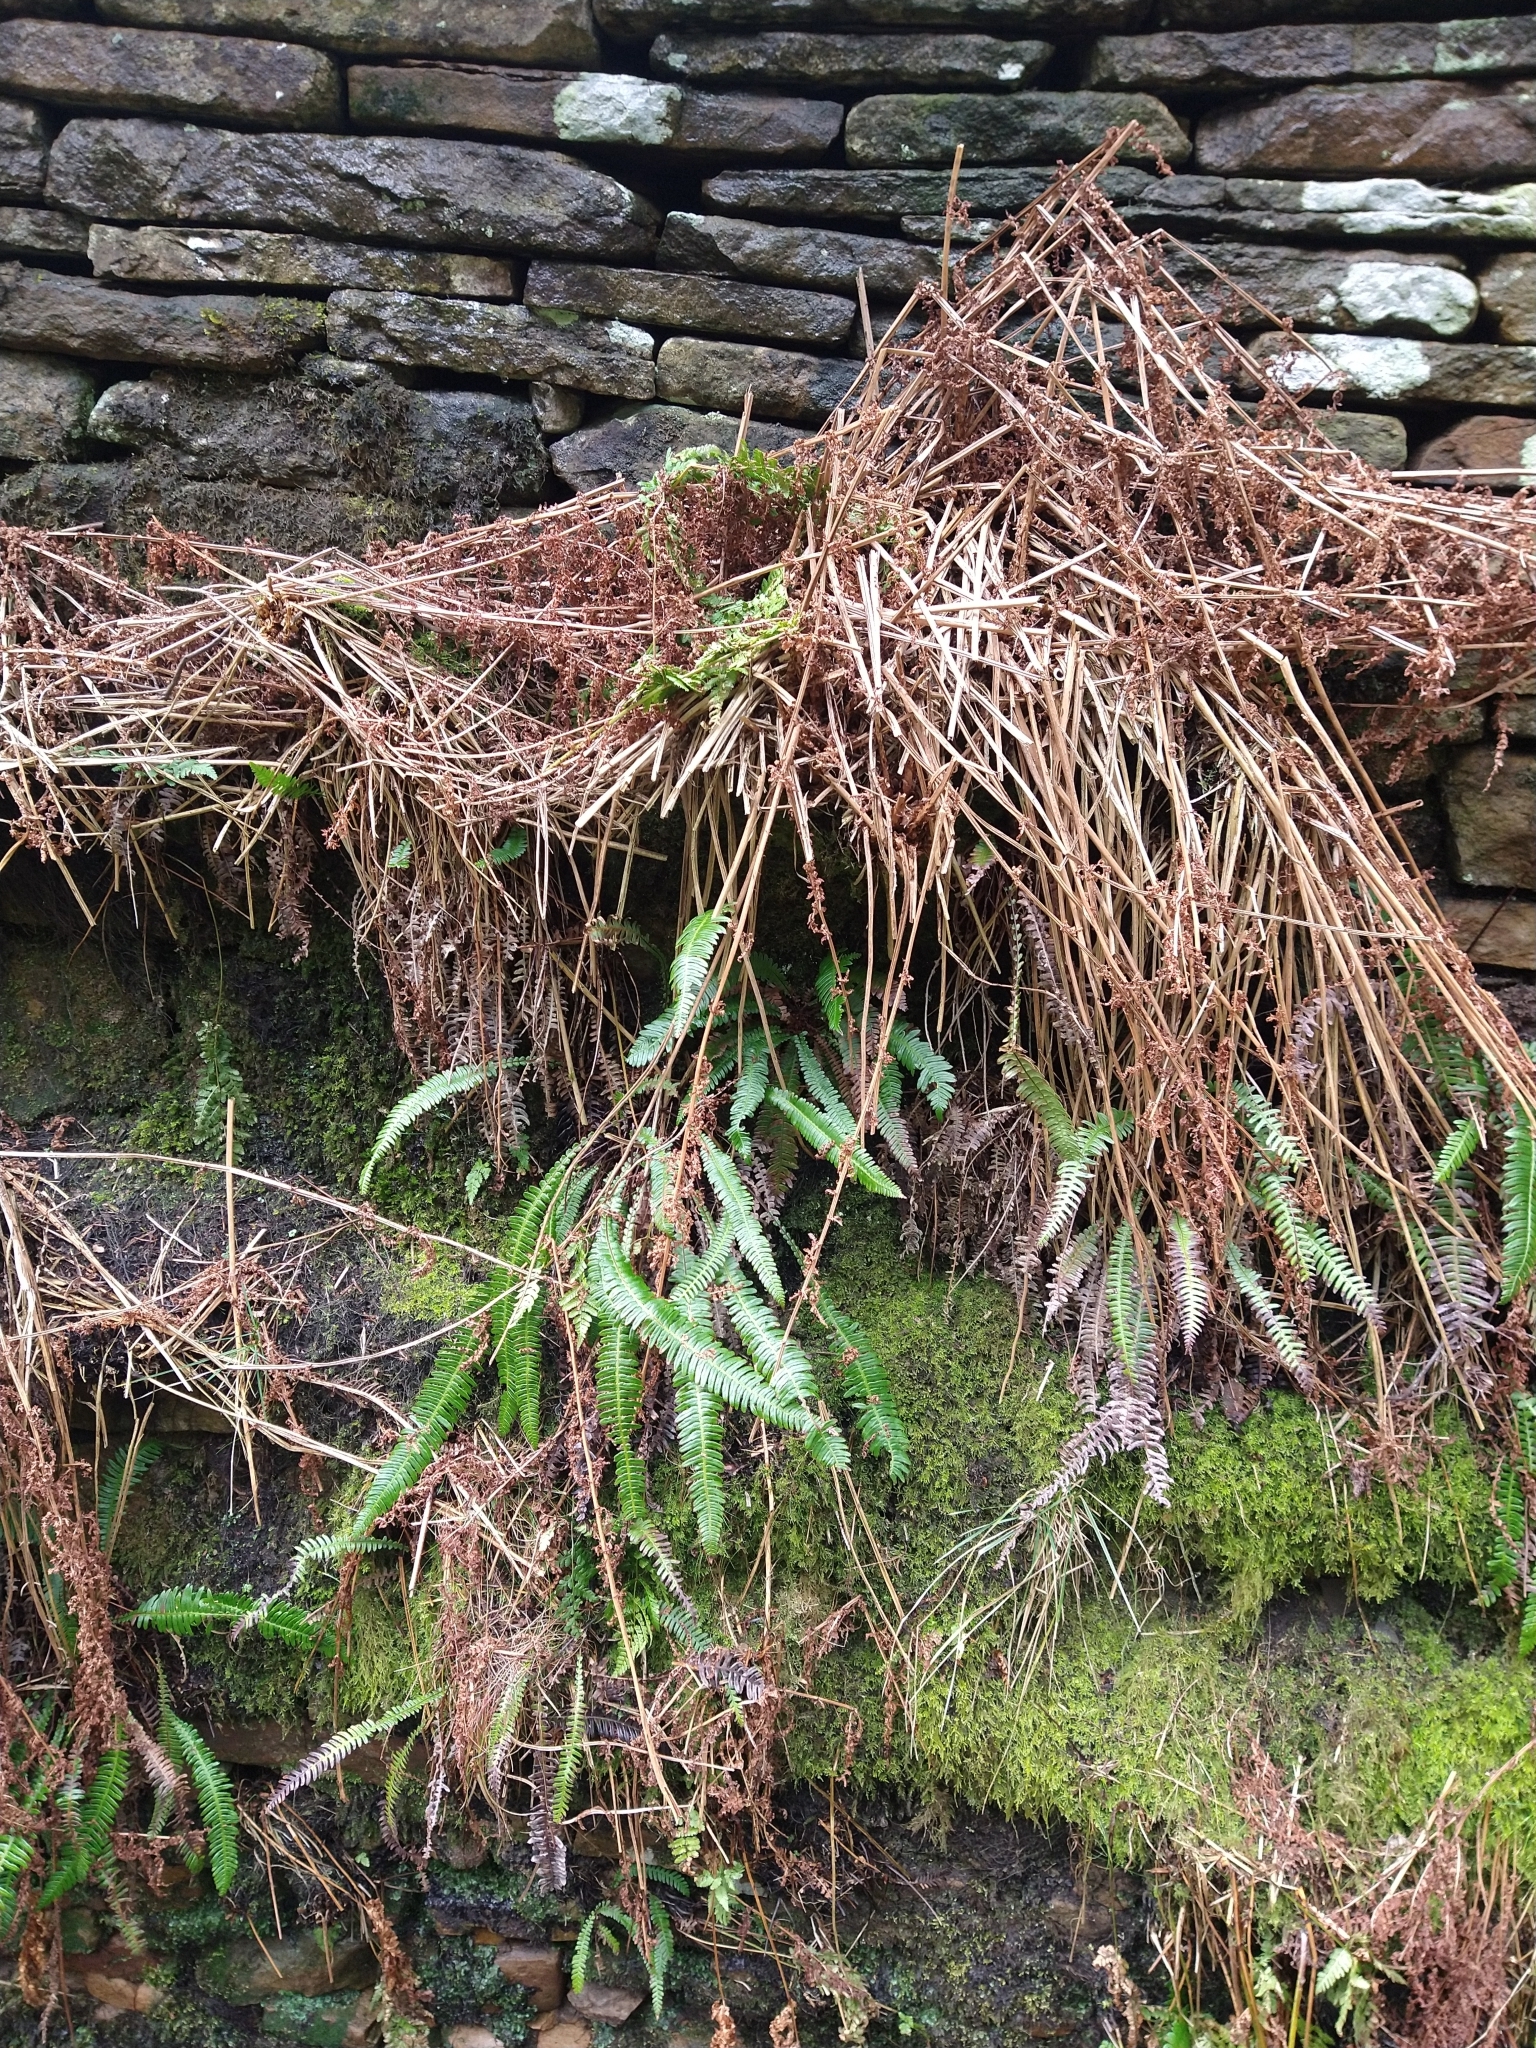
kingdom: Plantae
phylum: Tracheophyta
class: Polypodiopsida
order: Polypodiales
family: Blechnaceae
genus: Struthiopteris
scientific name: Struthiopteris spicant
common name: Deer fern
